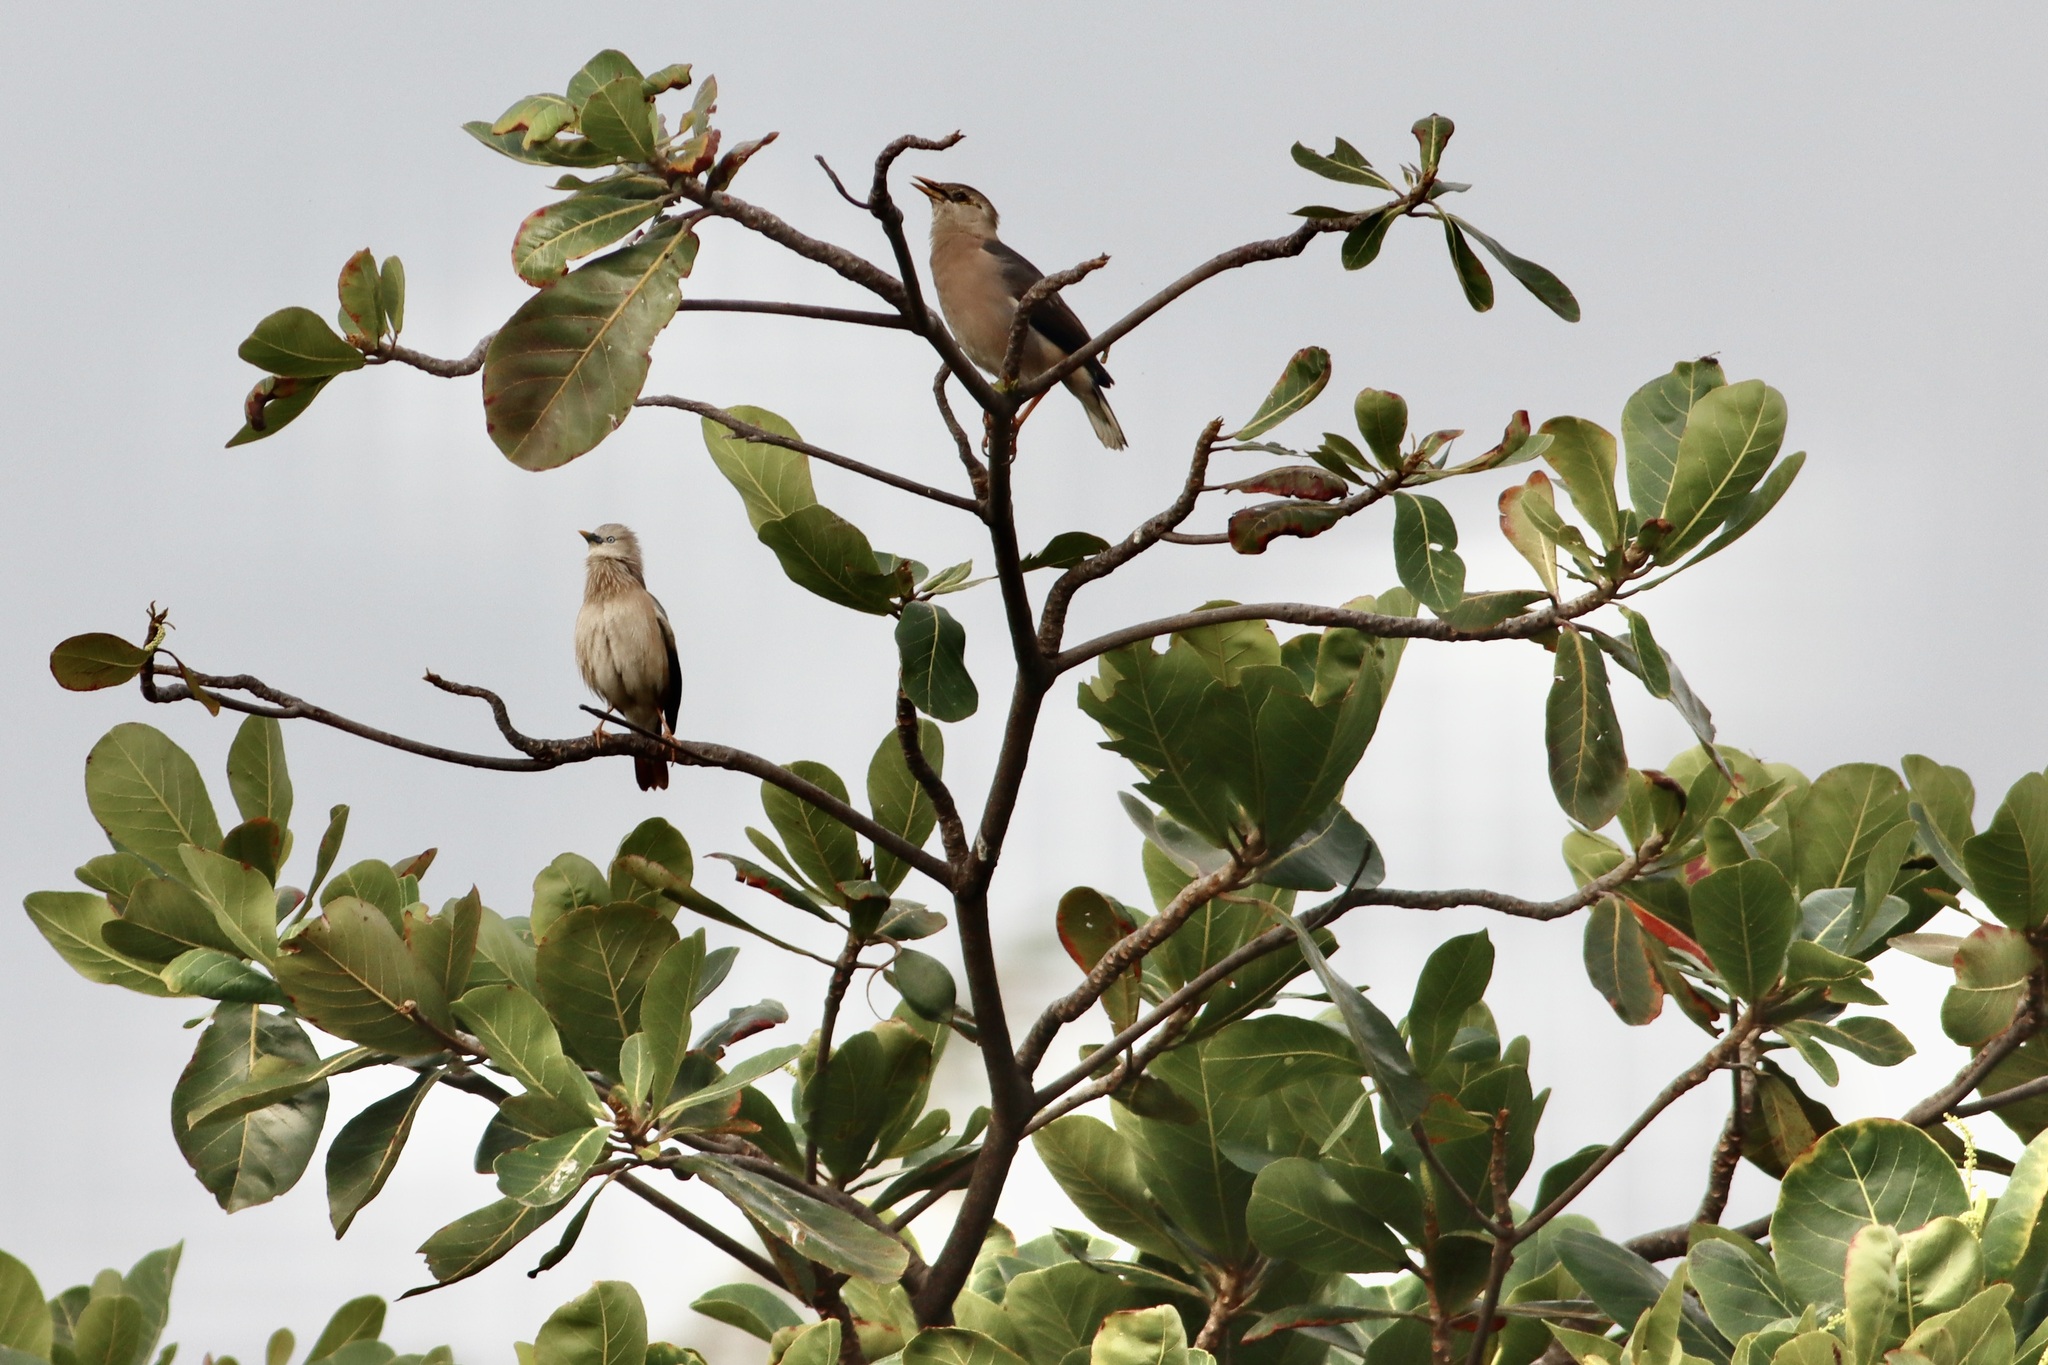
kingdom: Animalia
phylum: Chordata
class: Aves
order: Passeriformes
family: Sturnidae
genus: Sturnia
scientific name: Sturnia malabarica
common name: Chestnut-tailed starling
